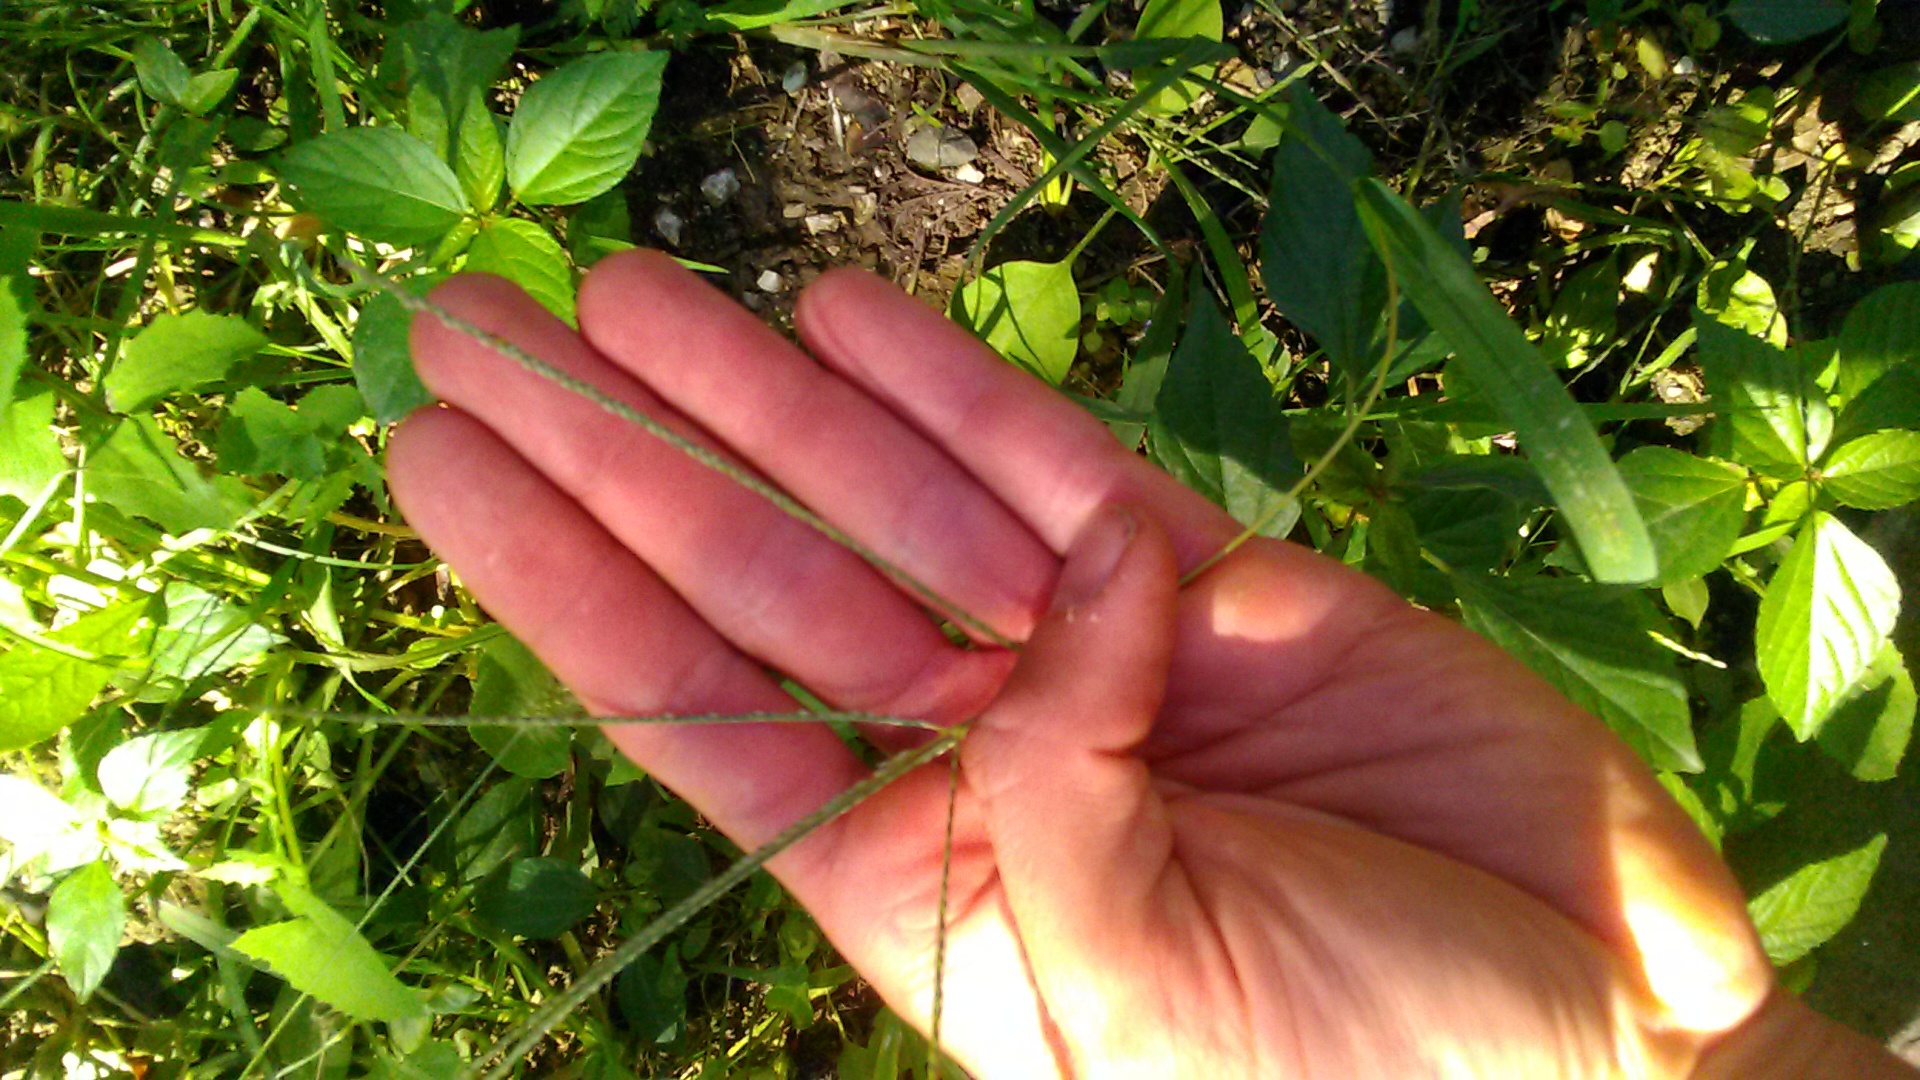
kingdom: Plantae
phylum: Tracheophyta
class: Liliopsida
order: Poales
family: Poaceae
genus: Digitaria
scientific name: Digitaria sanguinalis
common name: Hairy crabgrass
